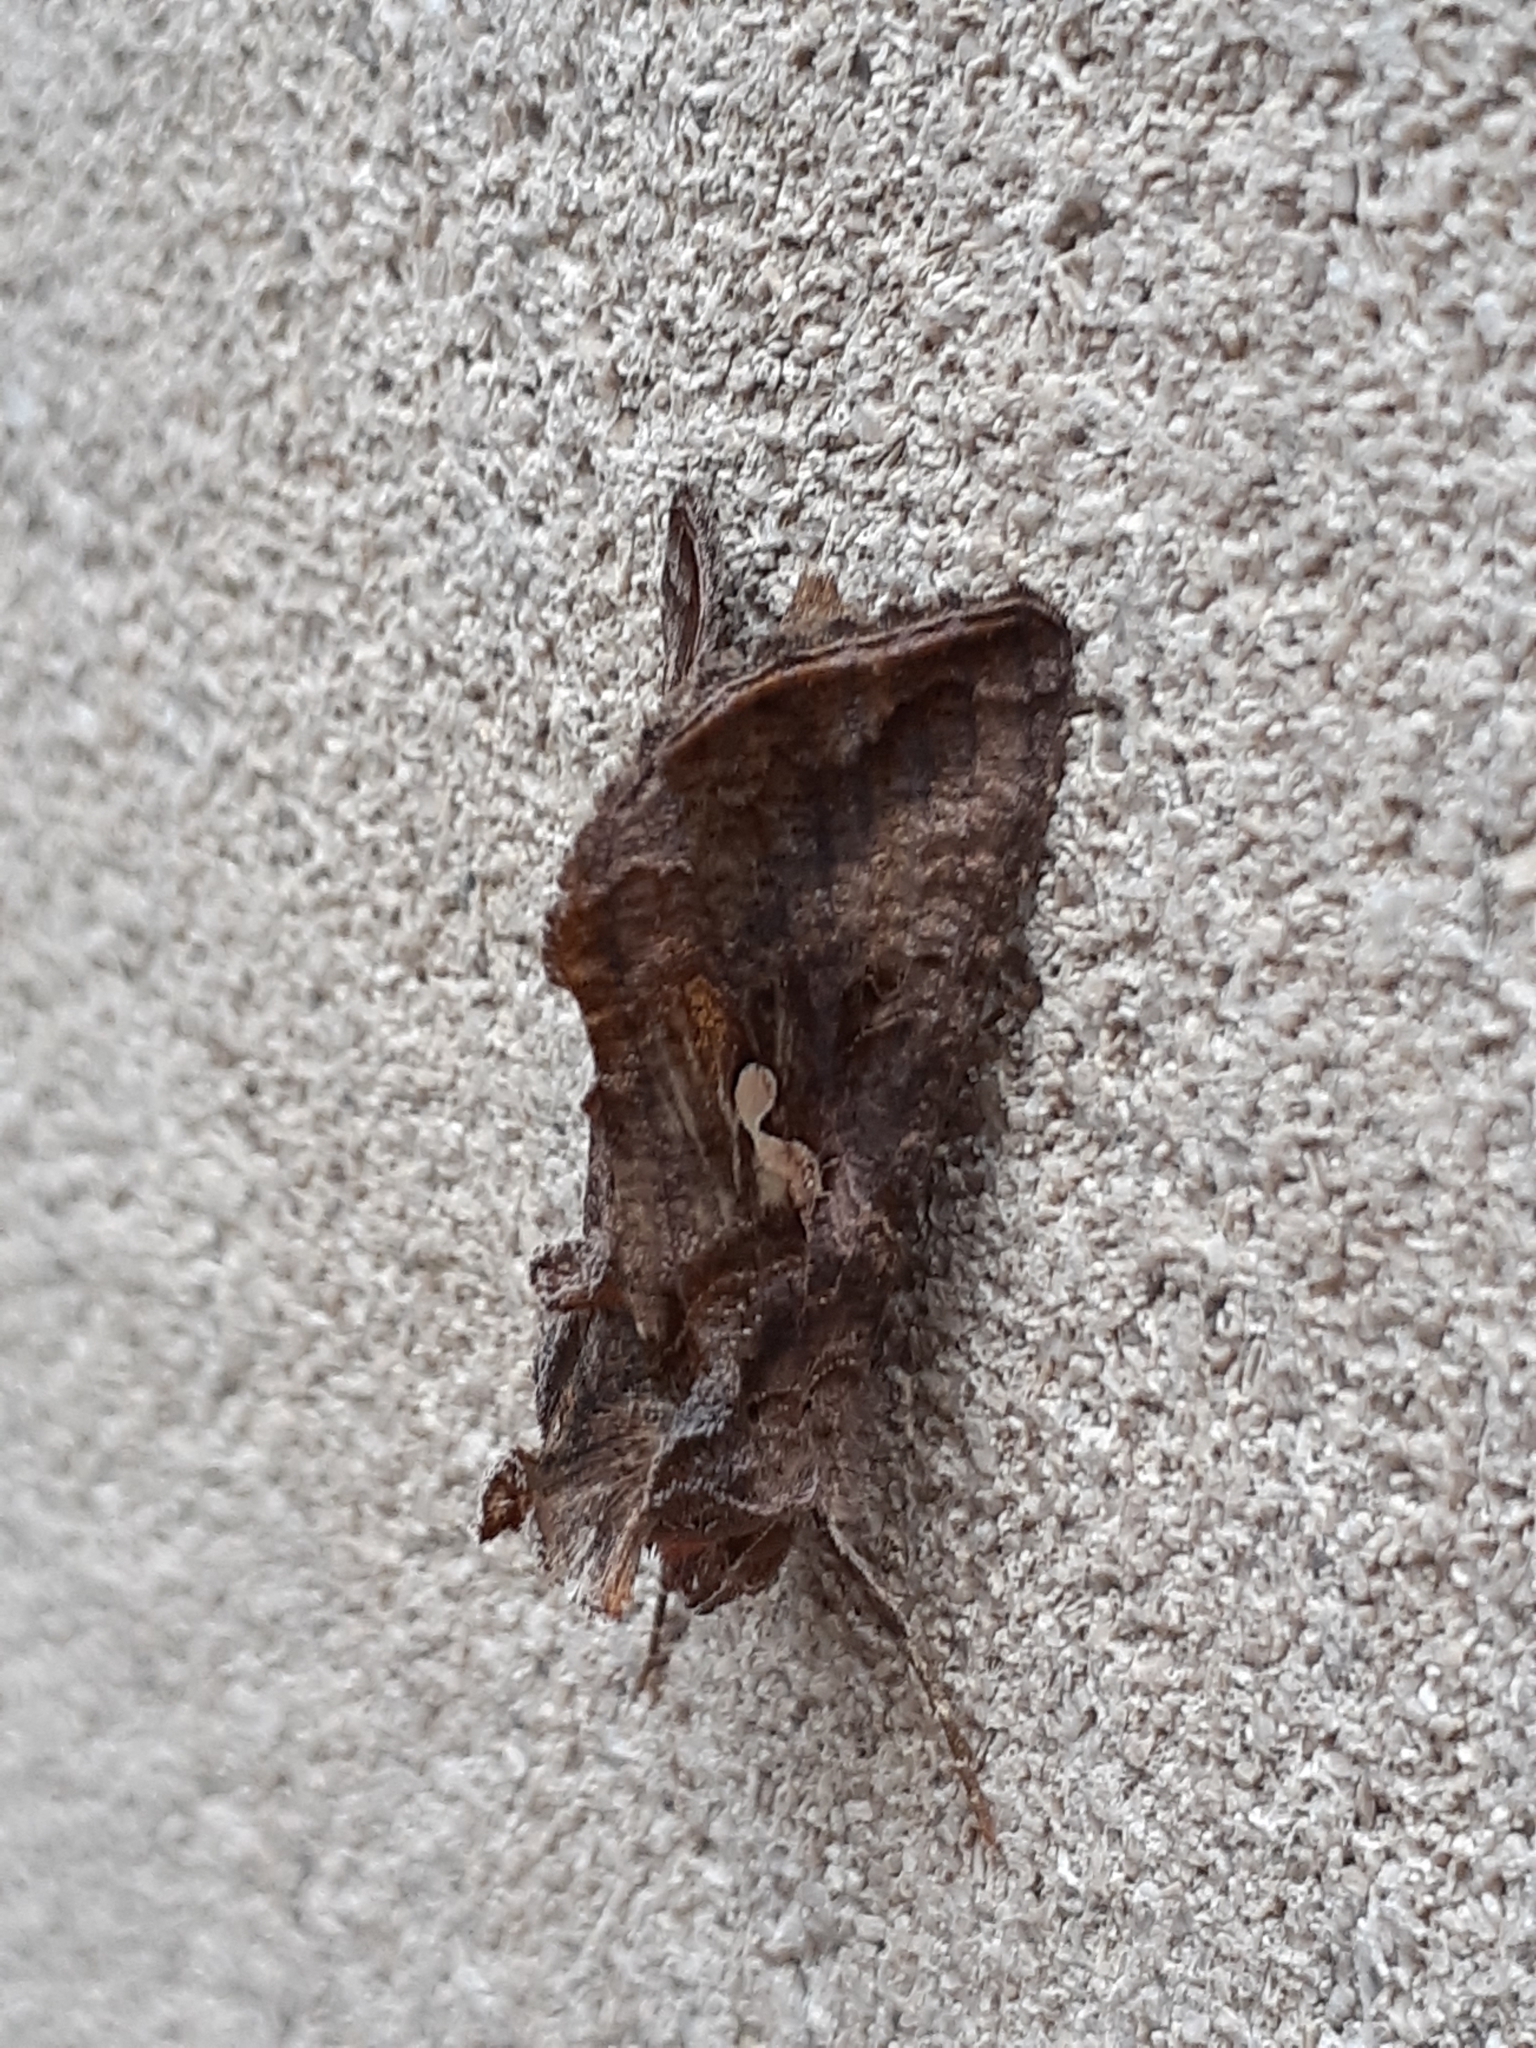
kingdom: Animalia
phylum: Arthropoda
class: Insecta
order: Lepidoptera
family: Noctuidae
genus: Autographa
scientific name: Autographa precationis
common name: Common looper moth
